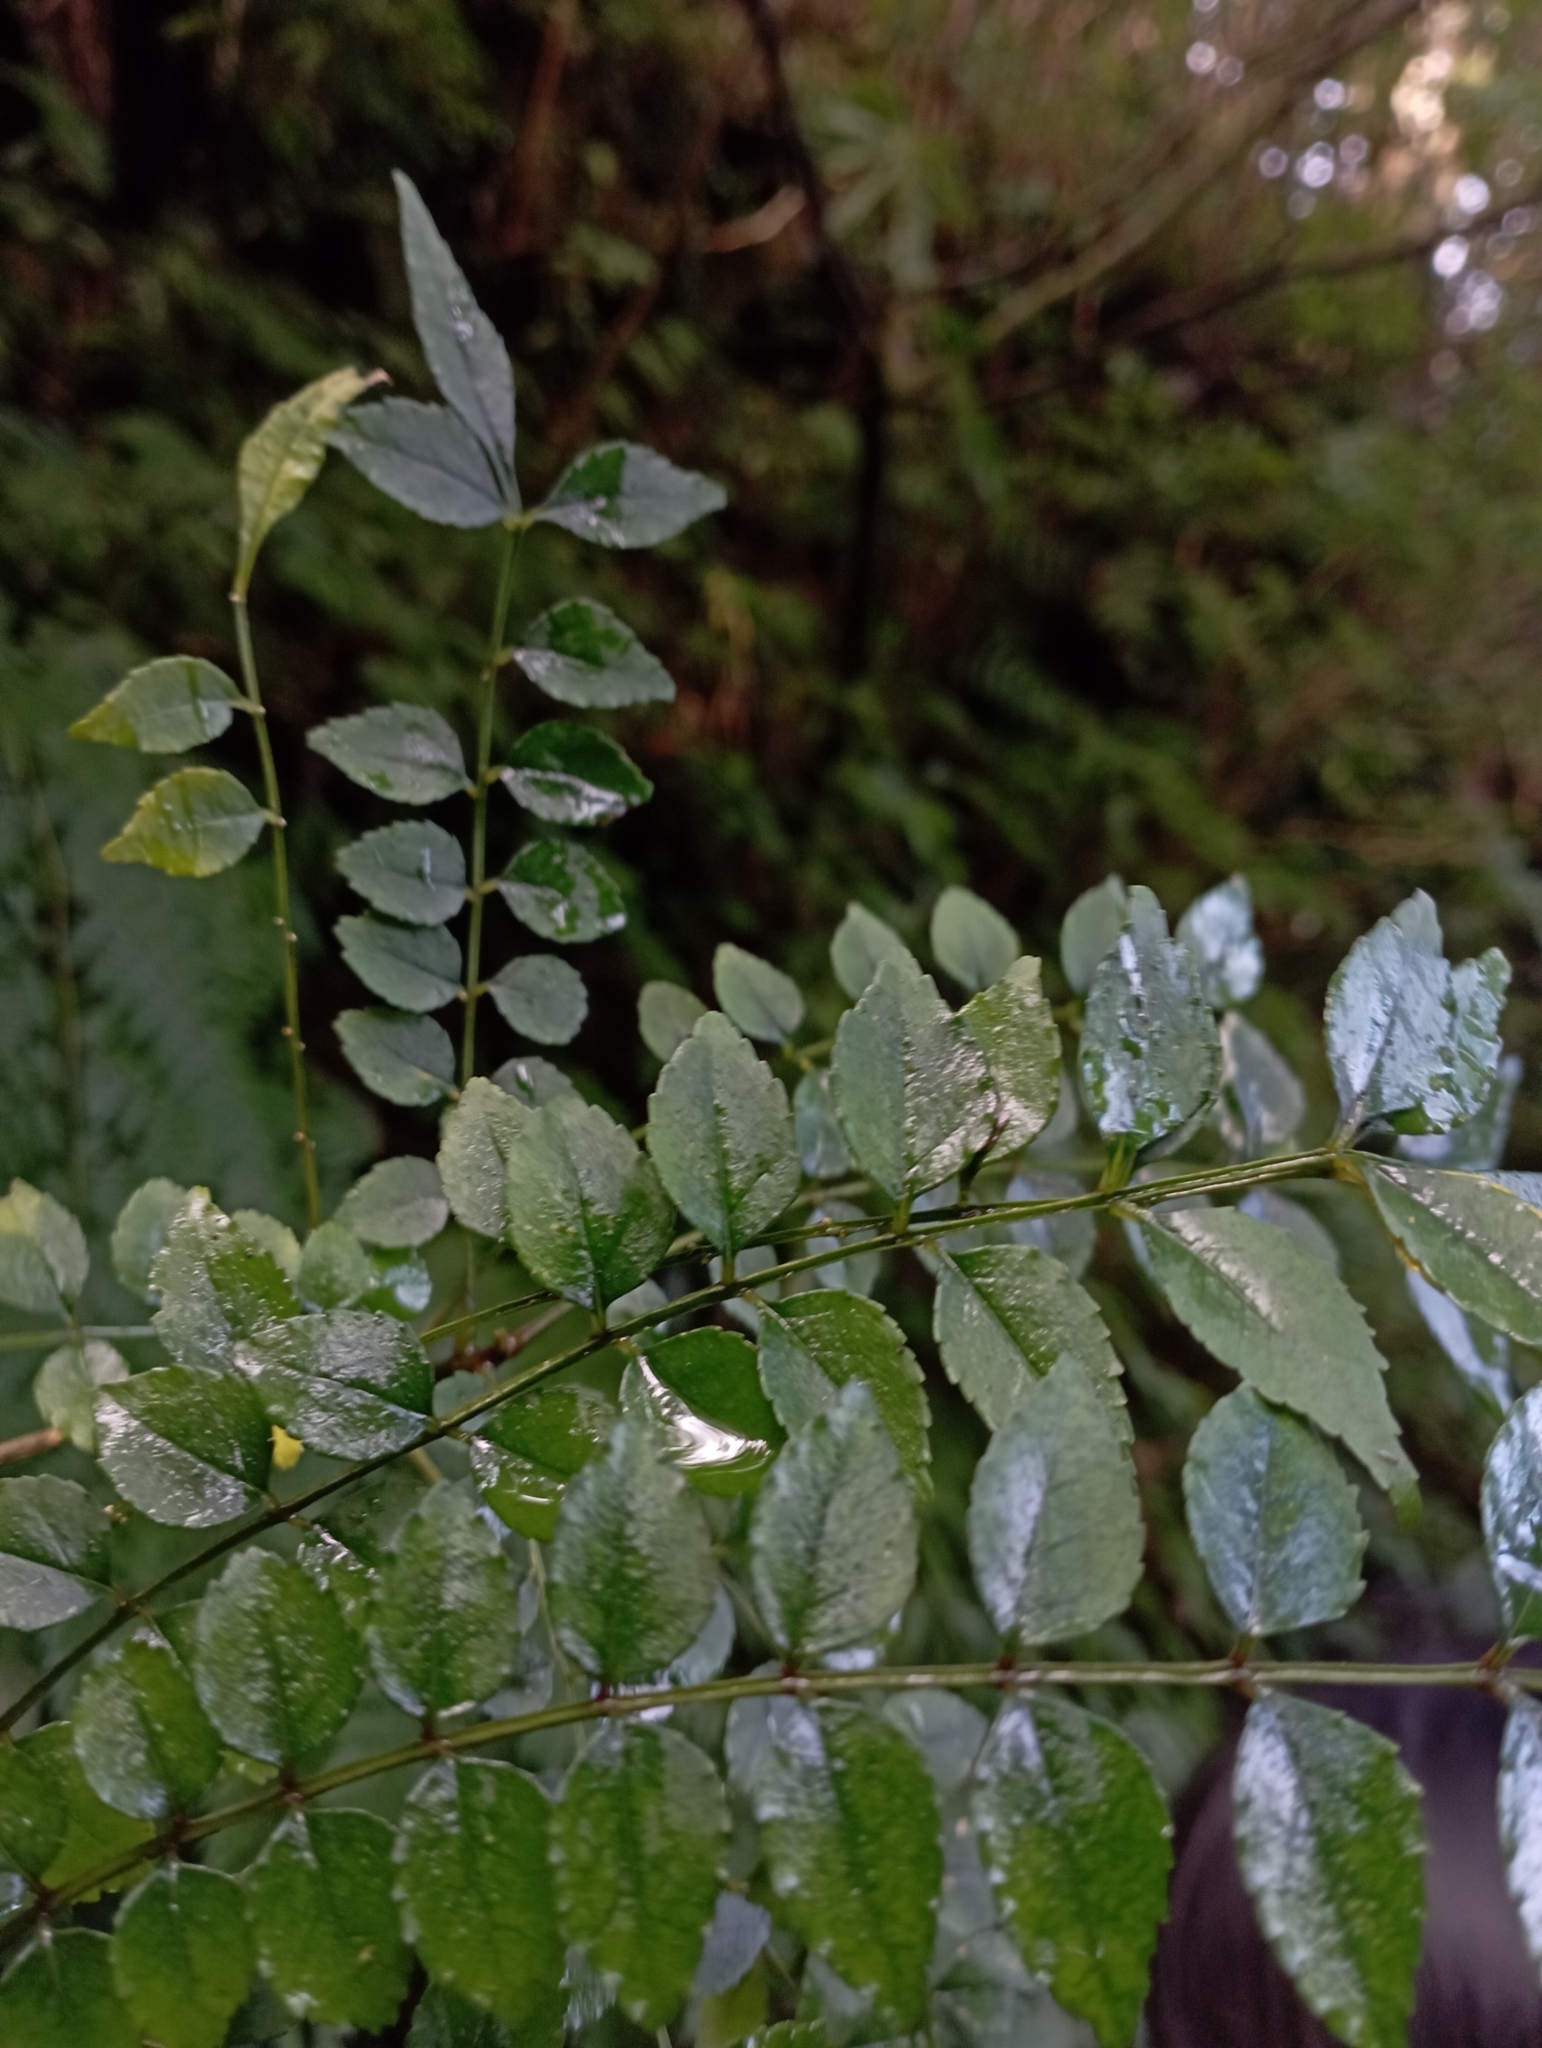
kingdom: Plantae
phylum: Tracheophyta
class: Magnoliopsida
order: Sapindales
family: Rutaceae
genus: Zanthoxylum
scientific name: Zanthoxylum schinifolium
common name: Sichuan-pepper
